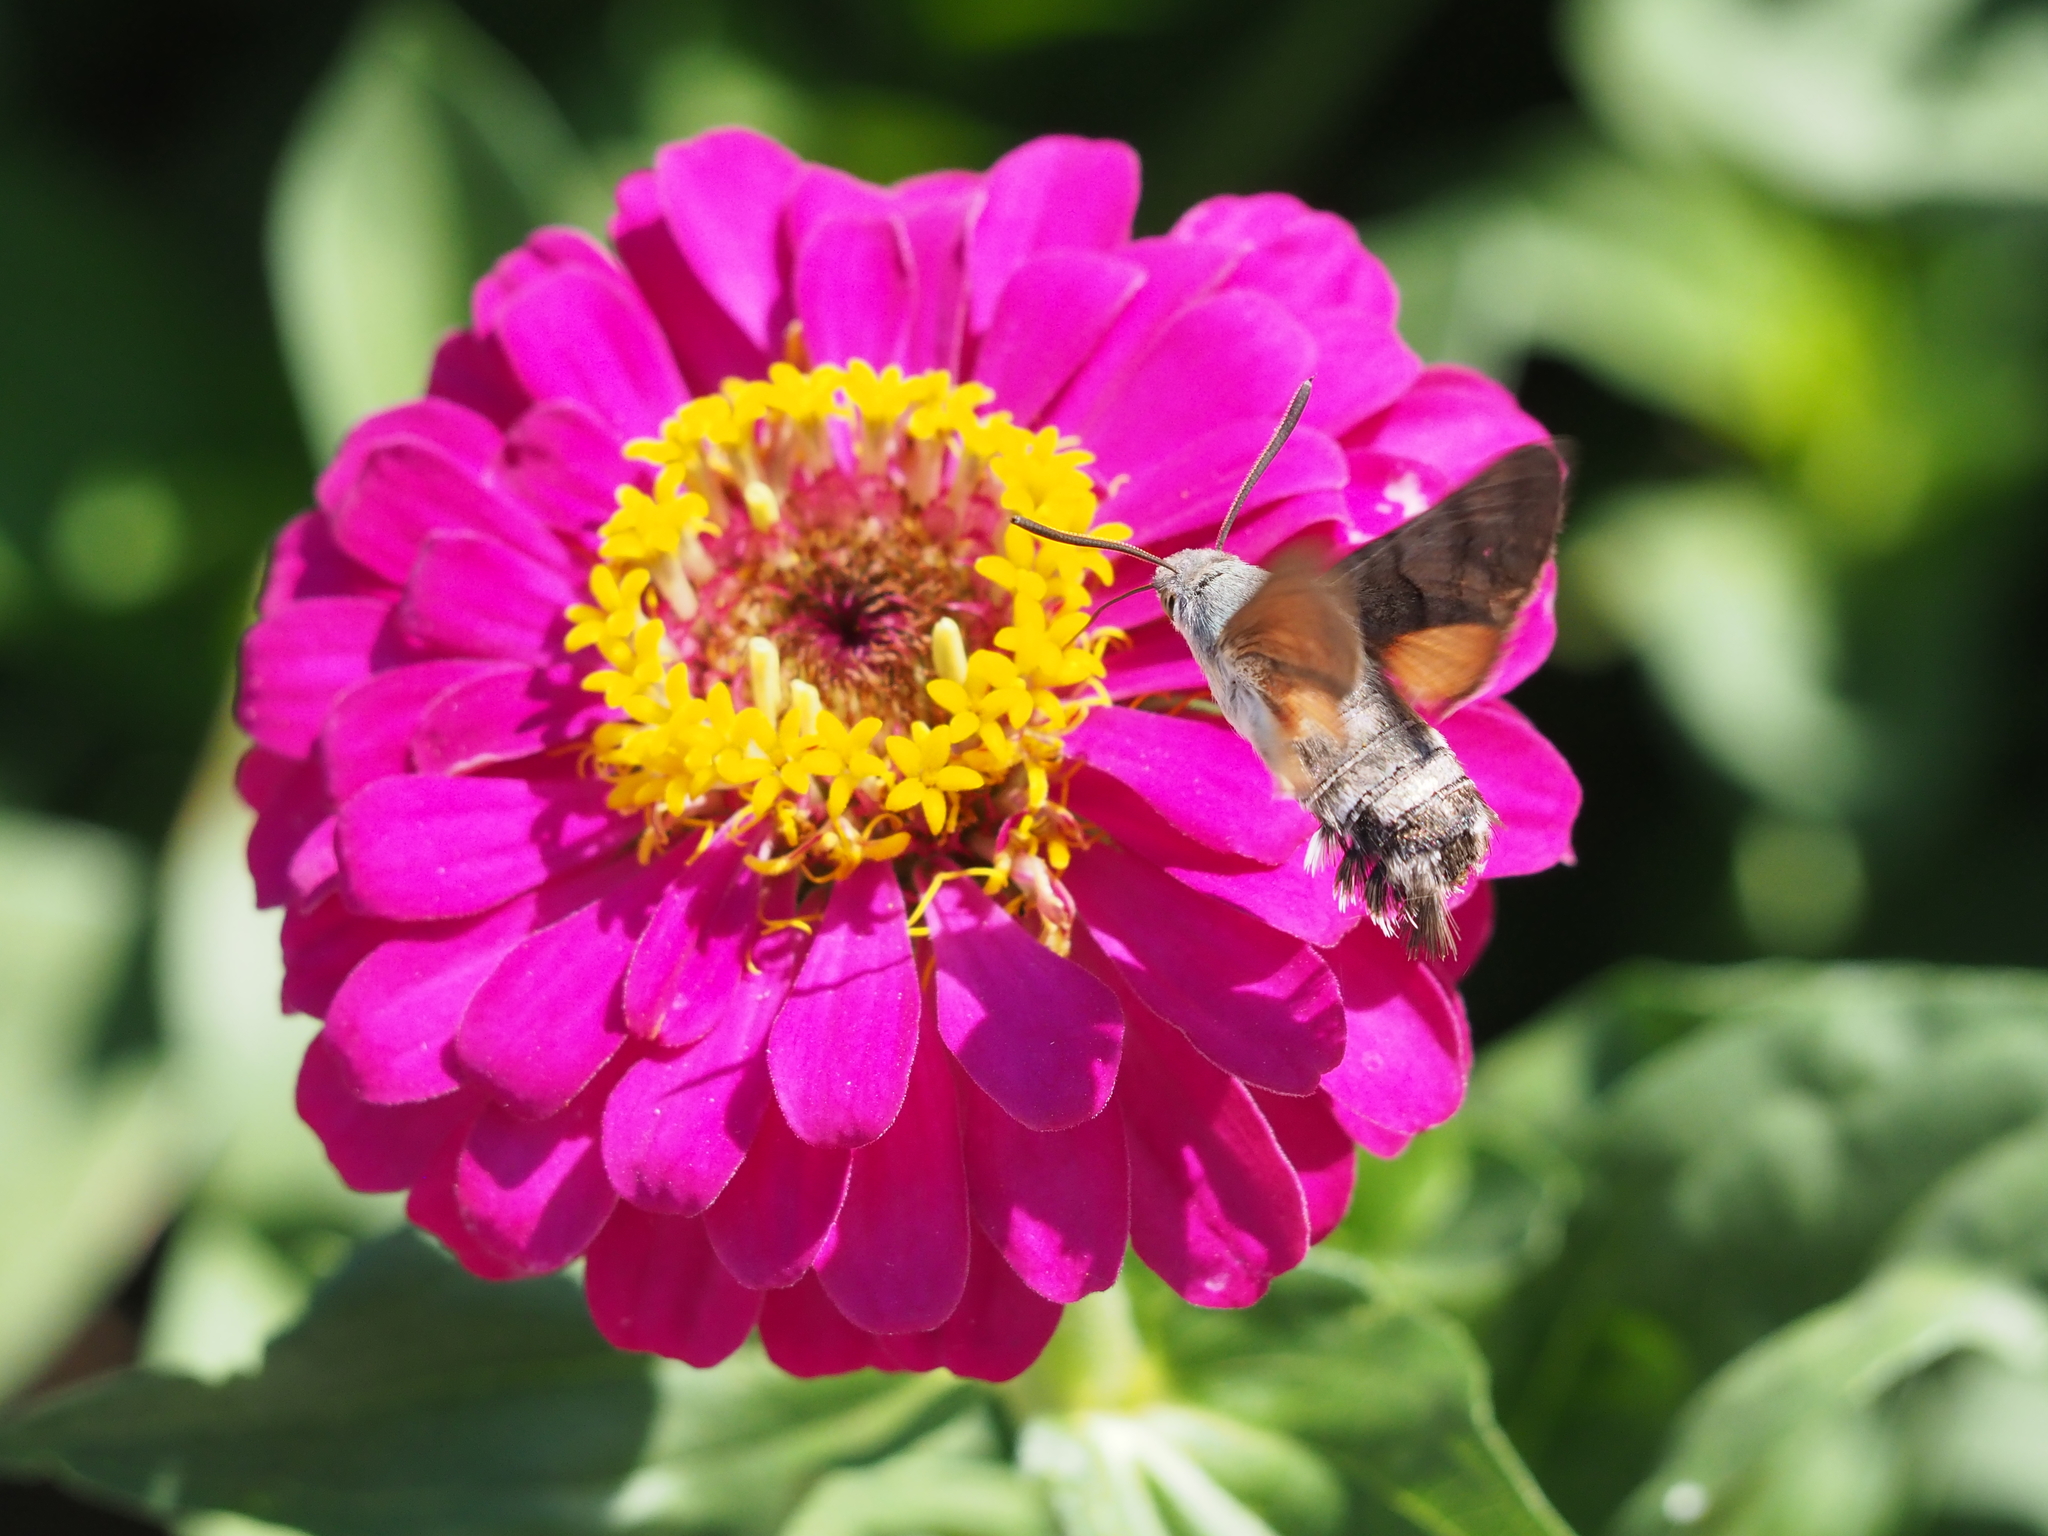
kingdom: Animalia
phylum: Arthropoda
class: Insecta
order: Lepidoptera
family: Sphingidae
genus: Macroglossum
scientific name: Macroglossum stellatarum
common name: Humming-bird hawk-moth
